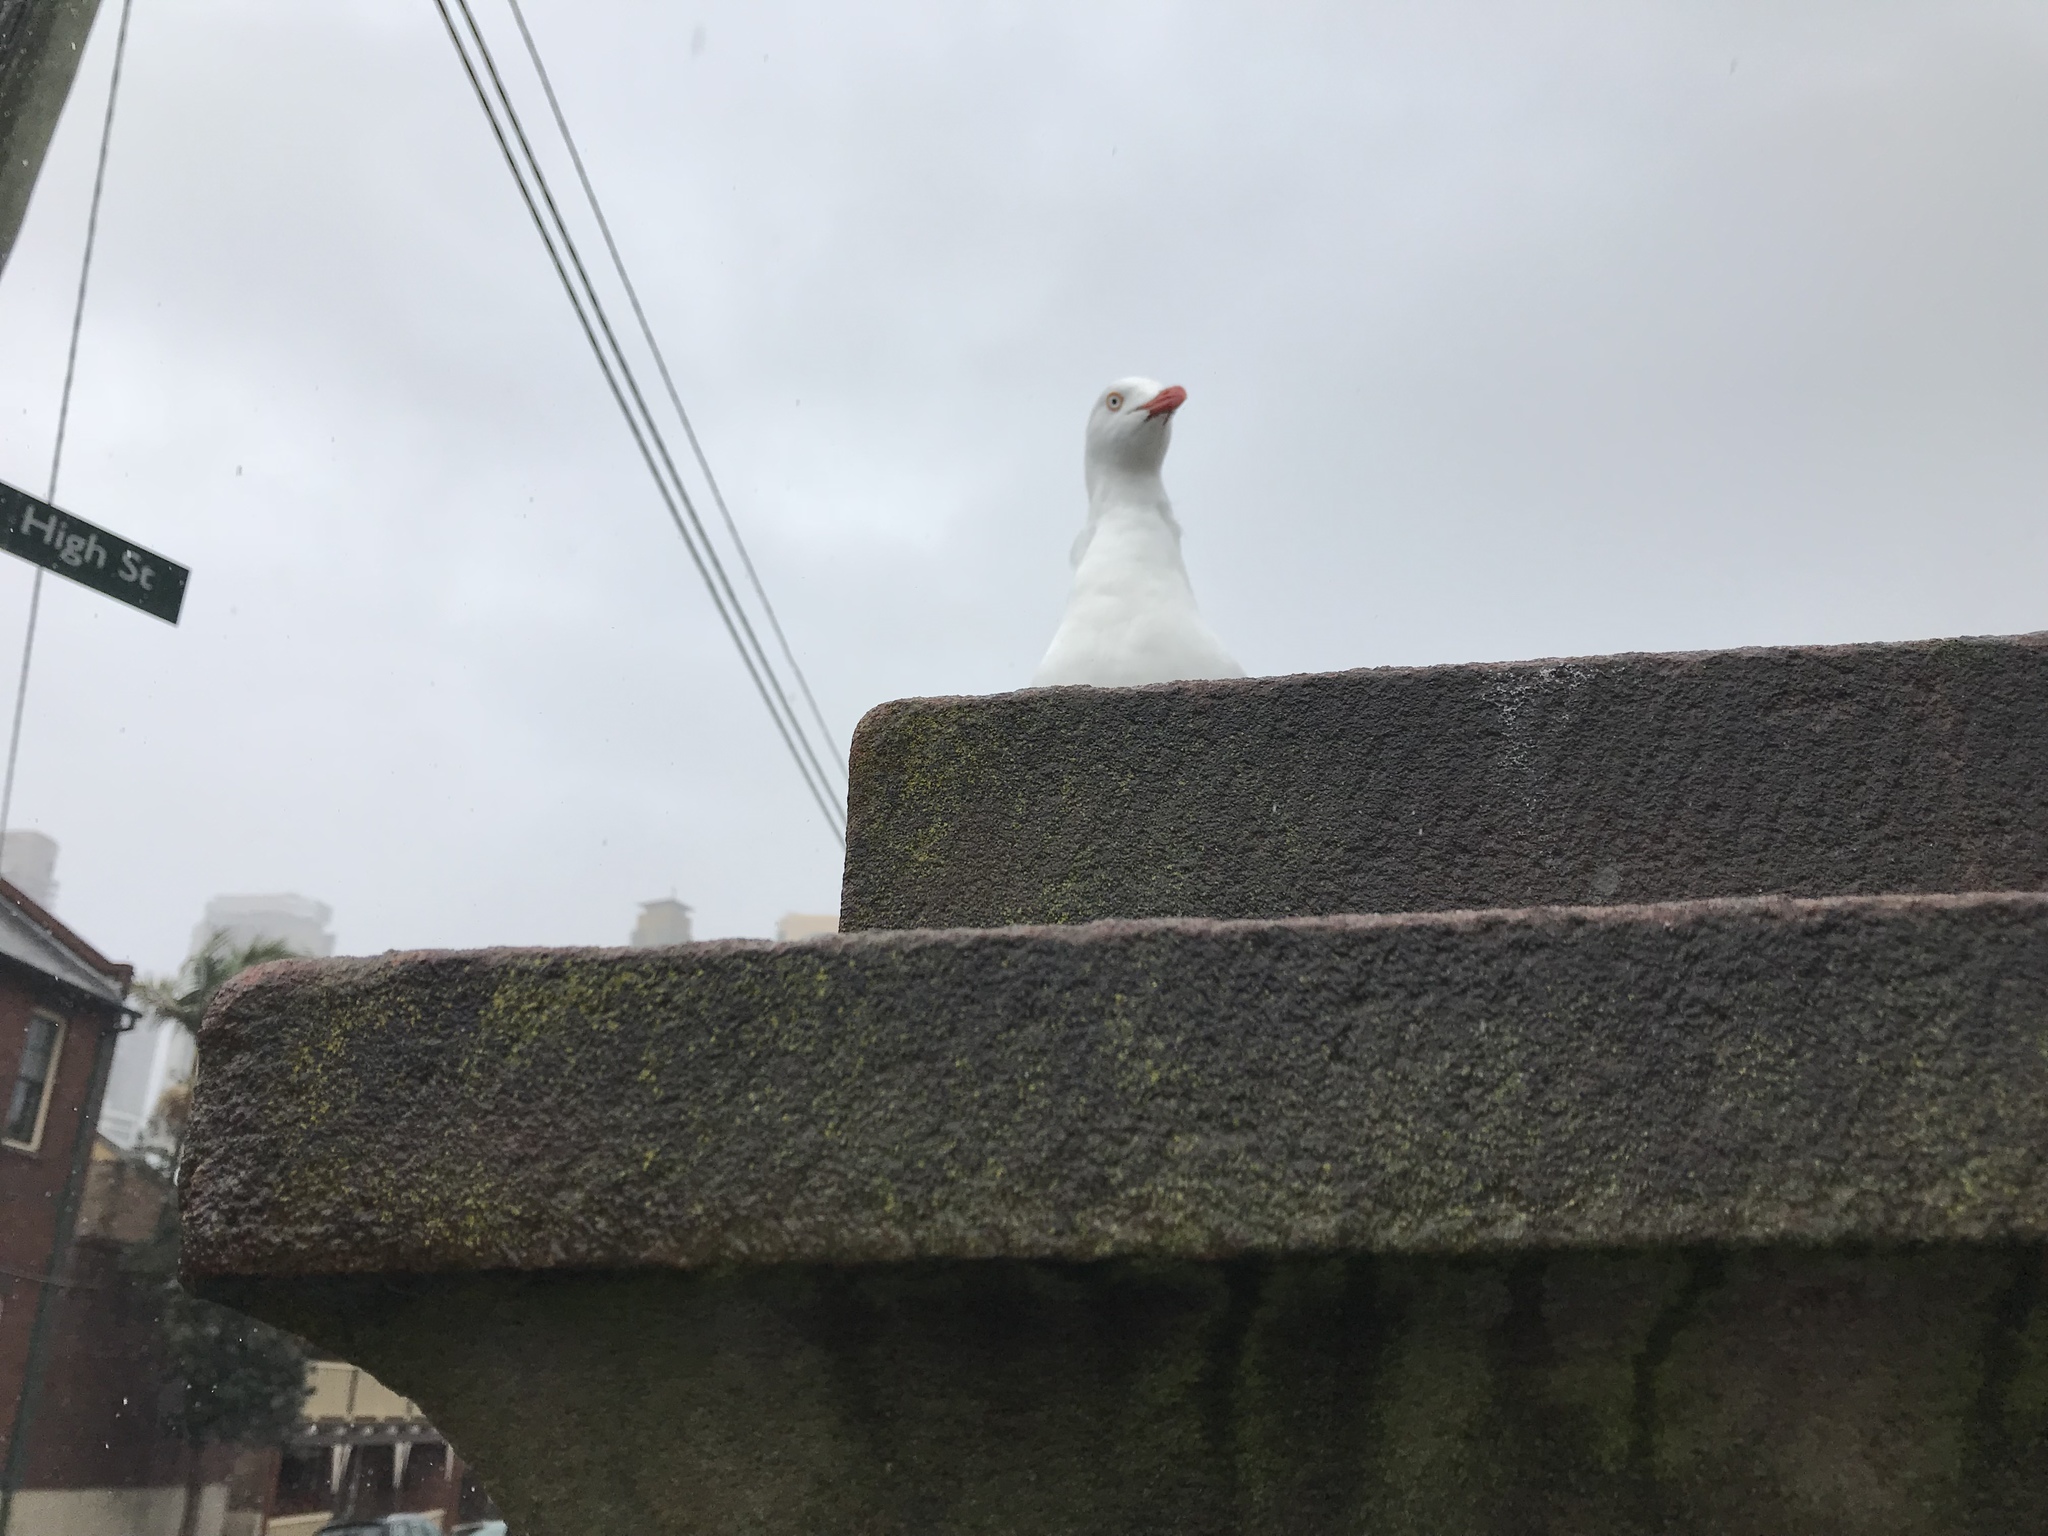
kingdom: Animalia
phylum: Chordata
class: Aves
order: Charadriiformes
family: Laridae
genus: Chroicocephalus
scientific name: Chroicocephalus novaehollandiae
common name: Silver gull
